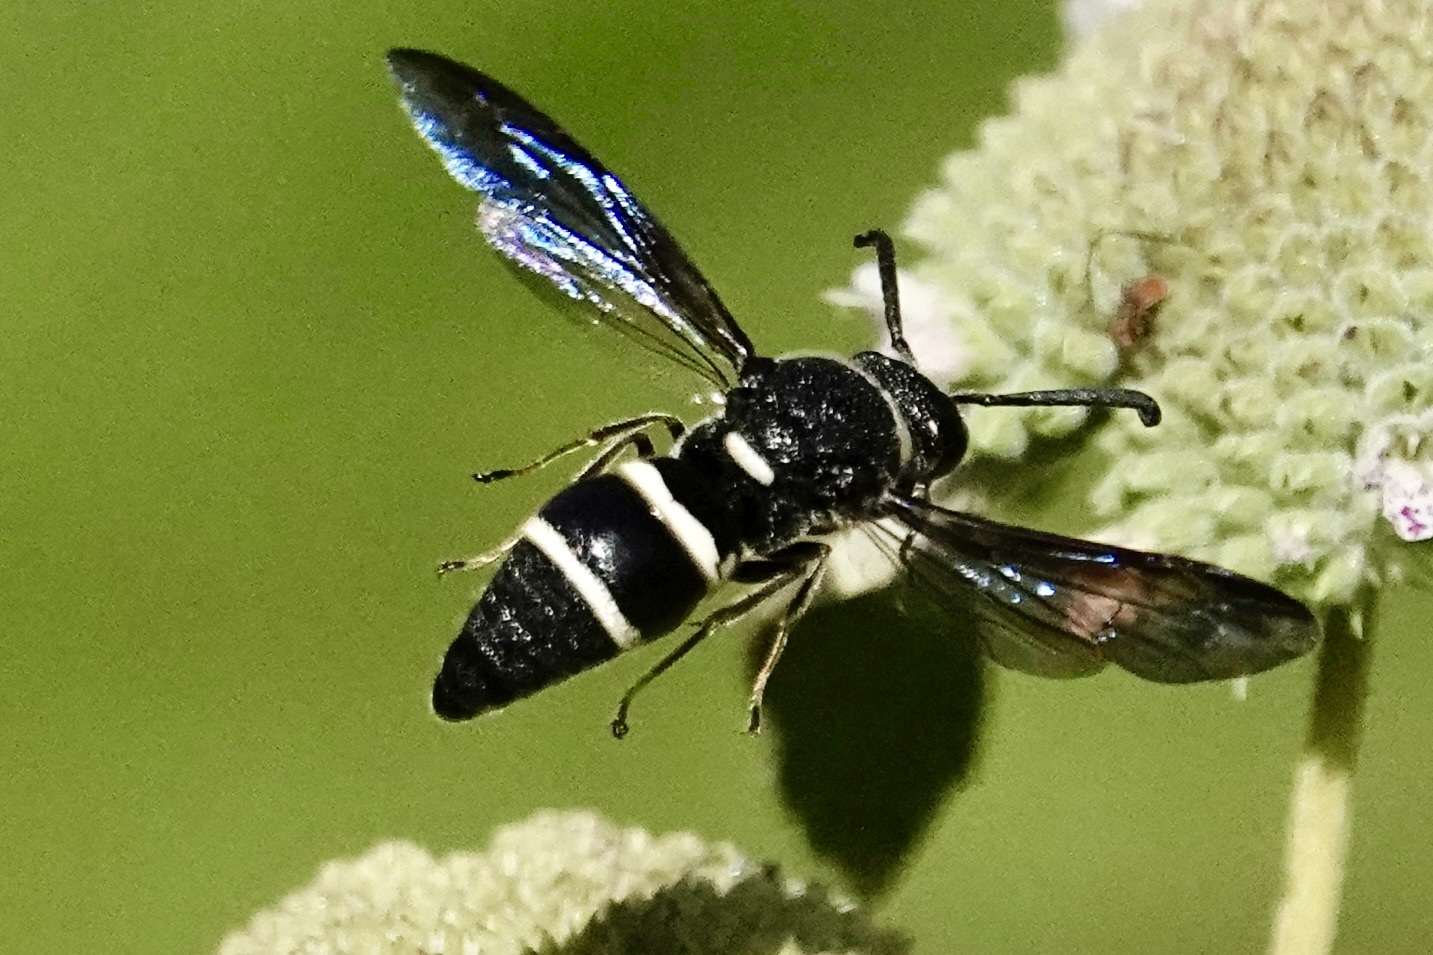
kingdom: Animalia
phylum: Arthropoda
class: Insecta
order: Hymenoptera
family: Eumenidae
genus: Euodynerus
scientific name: Euodynerus megaera
